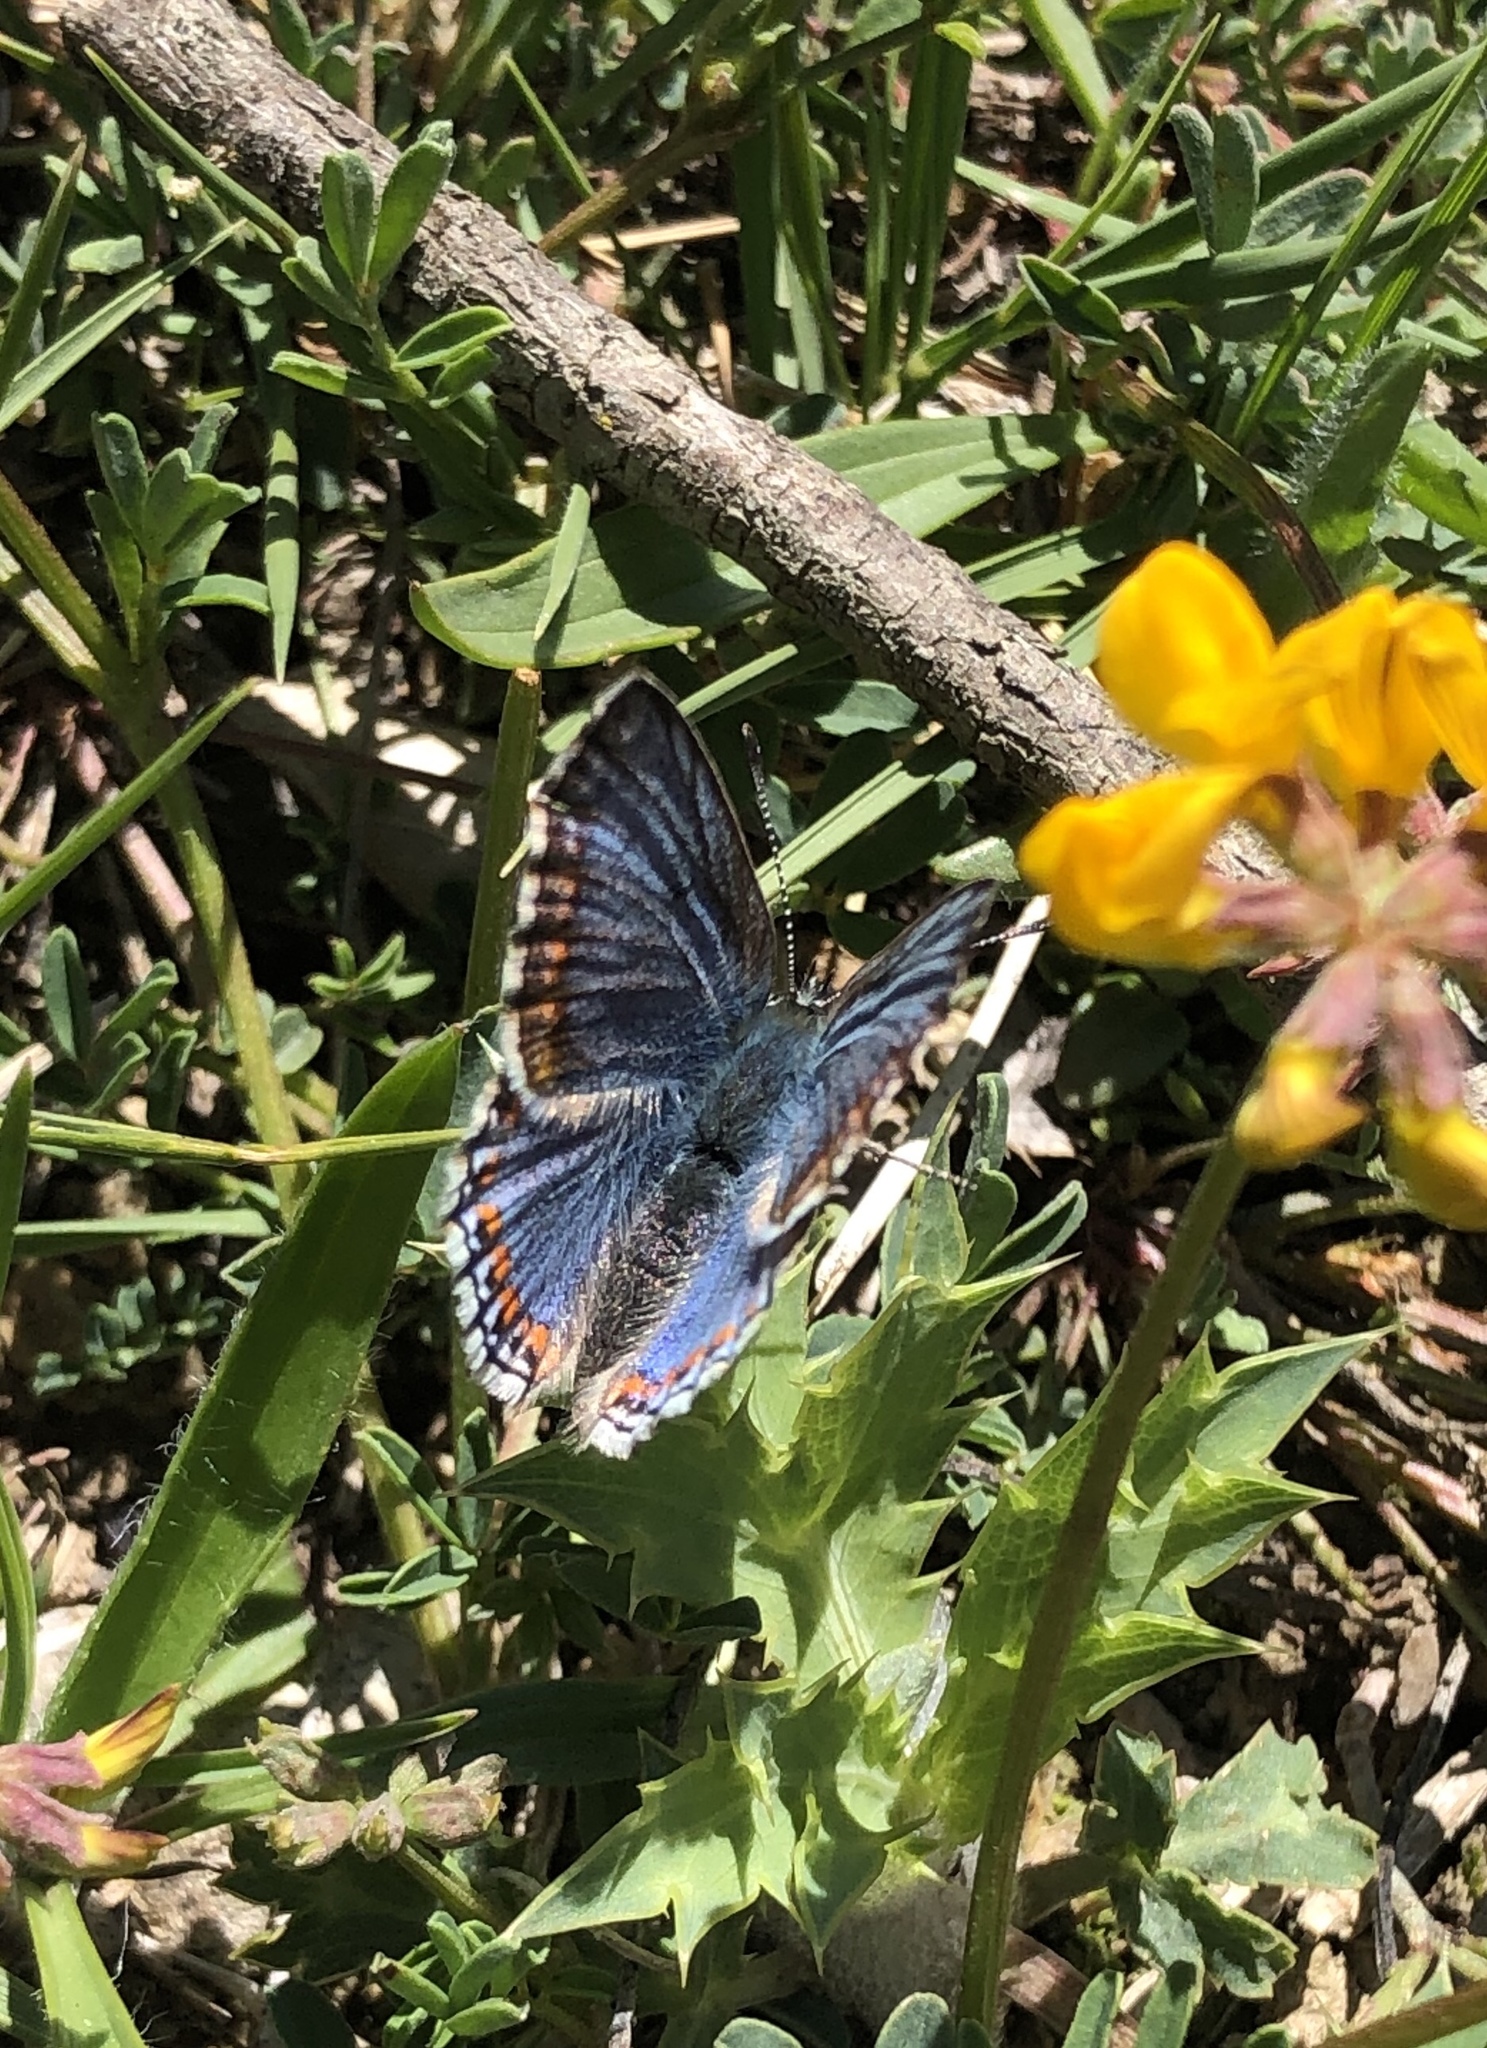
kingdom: Animalia
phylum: Arthropoda
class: Insecta
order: Lepidoptera
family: Lycaenidae
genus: Lysandra
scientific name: Lysandra bellargus
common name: Adonis blue
